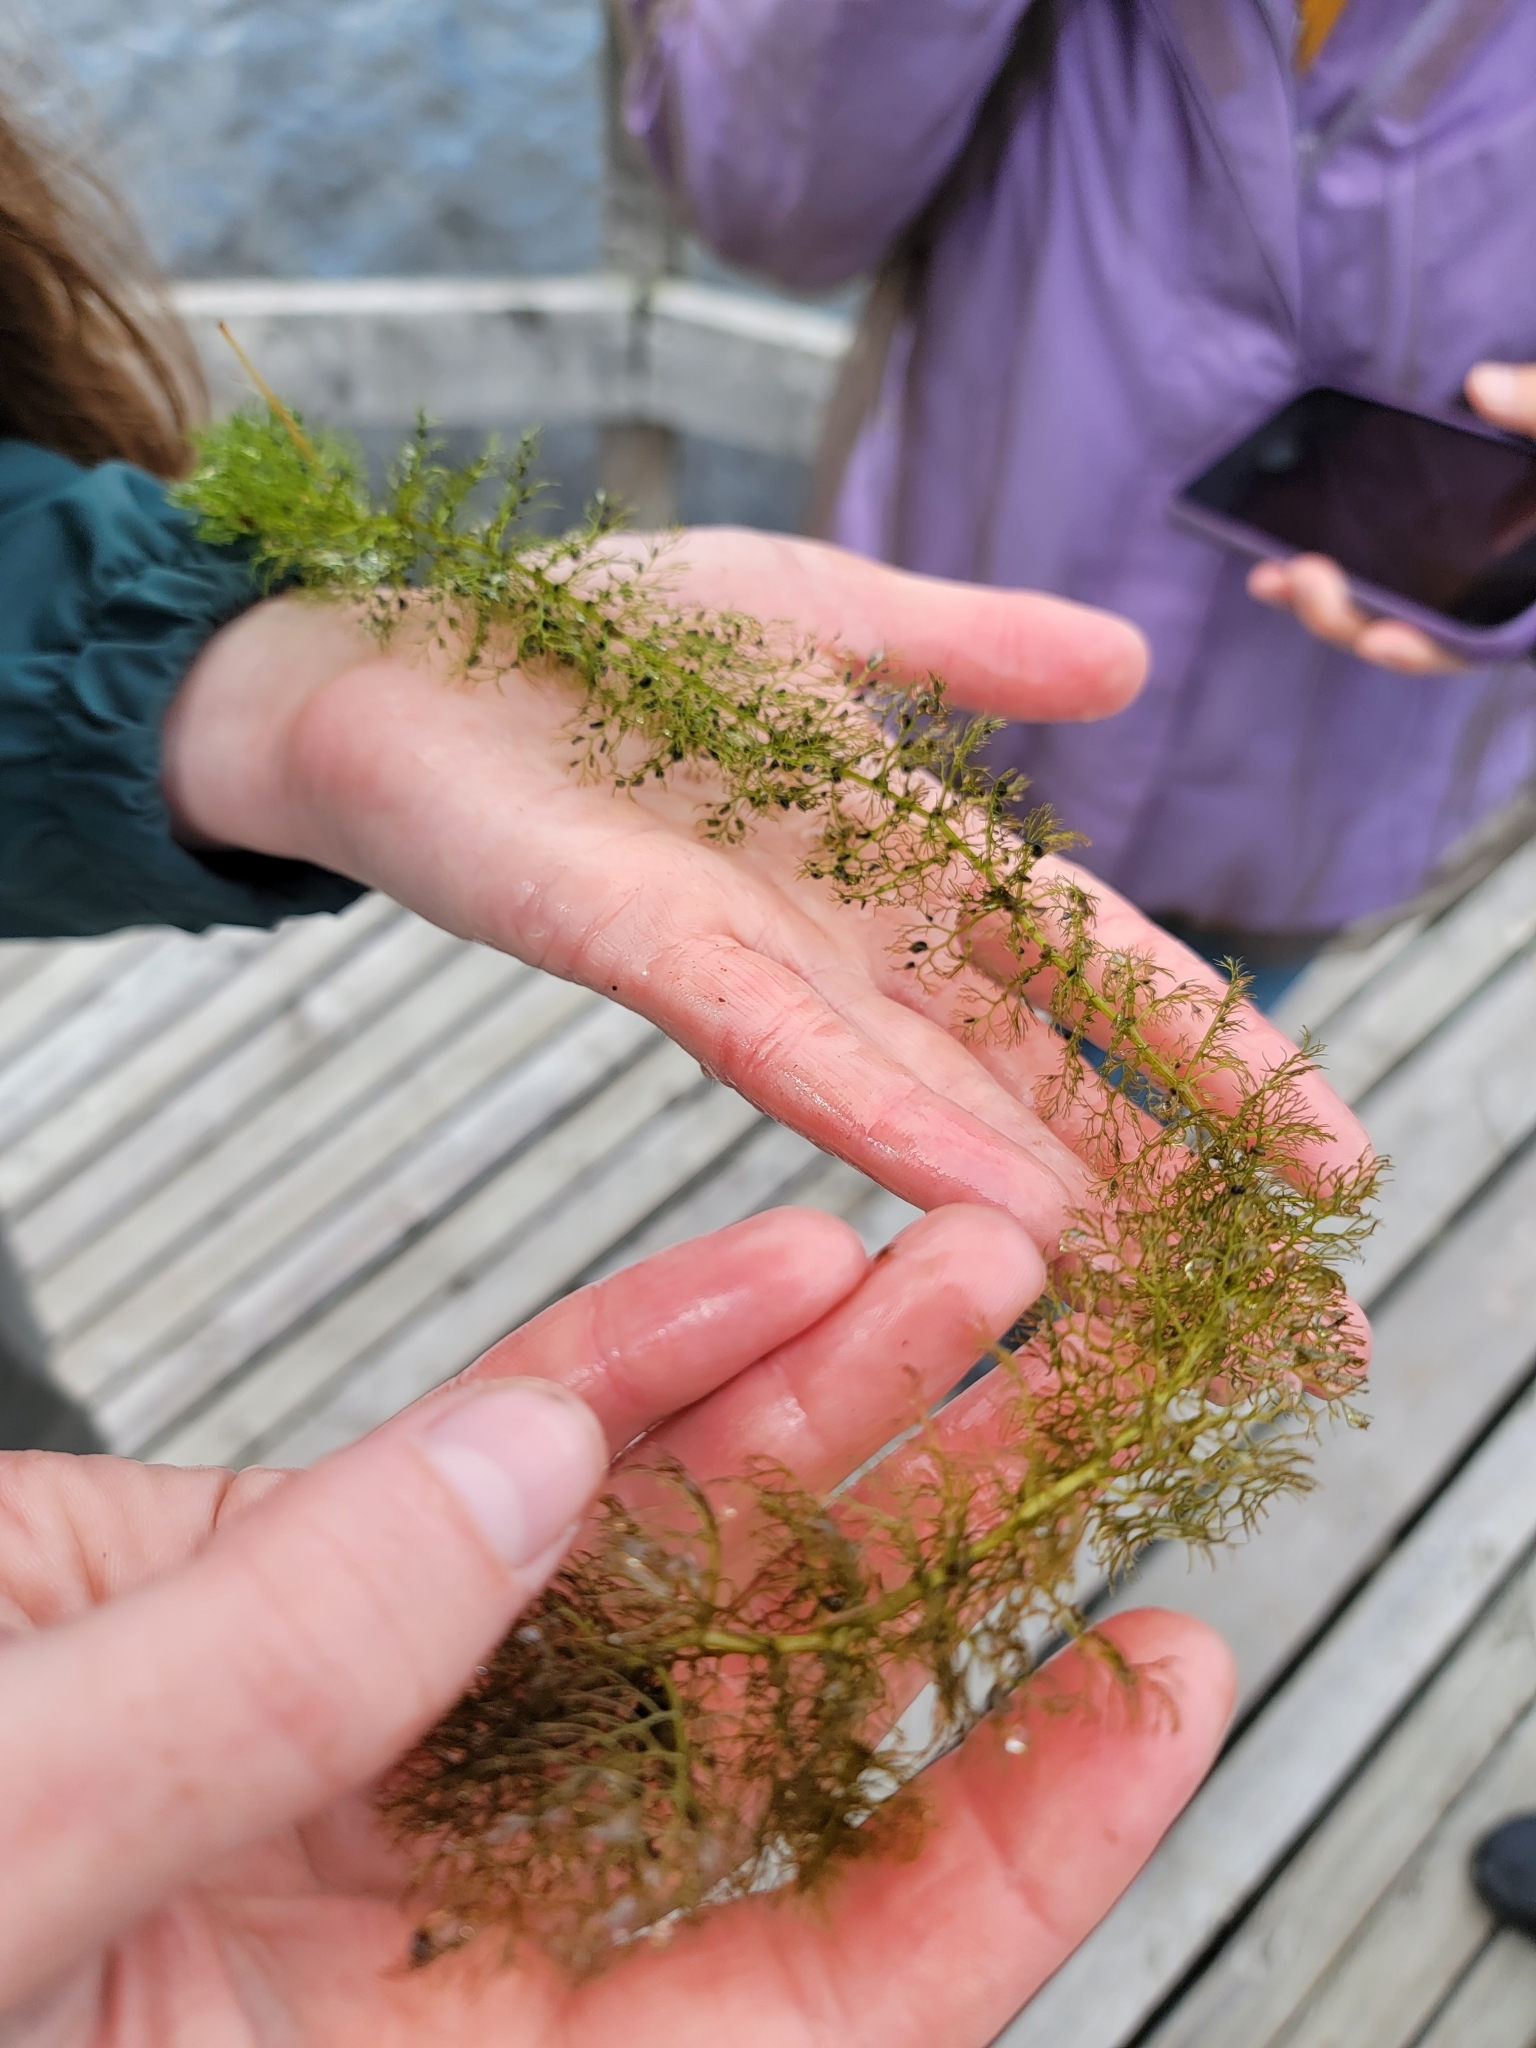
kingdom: Plantae
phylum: Tracheophyta
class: Magnoliopsida
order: Lamiales
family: Lentibulariaceae
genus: Utricularia
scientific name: Utricularia macrorhiza
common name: Common bladderwort
